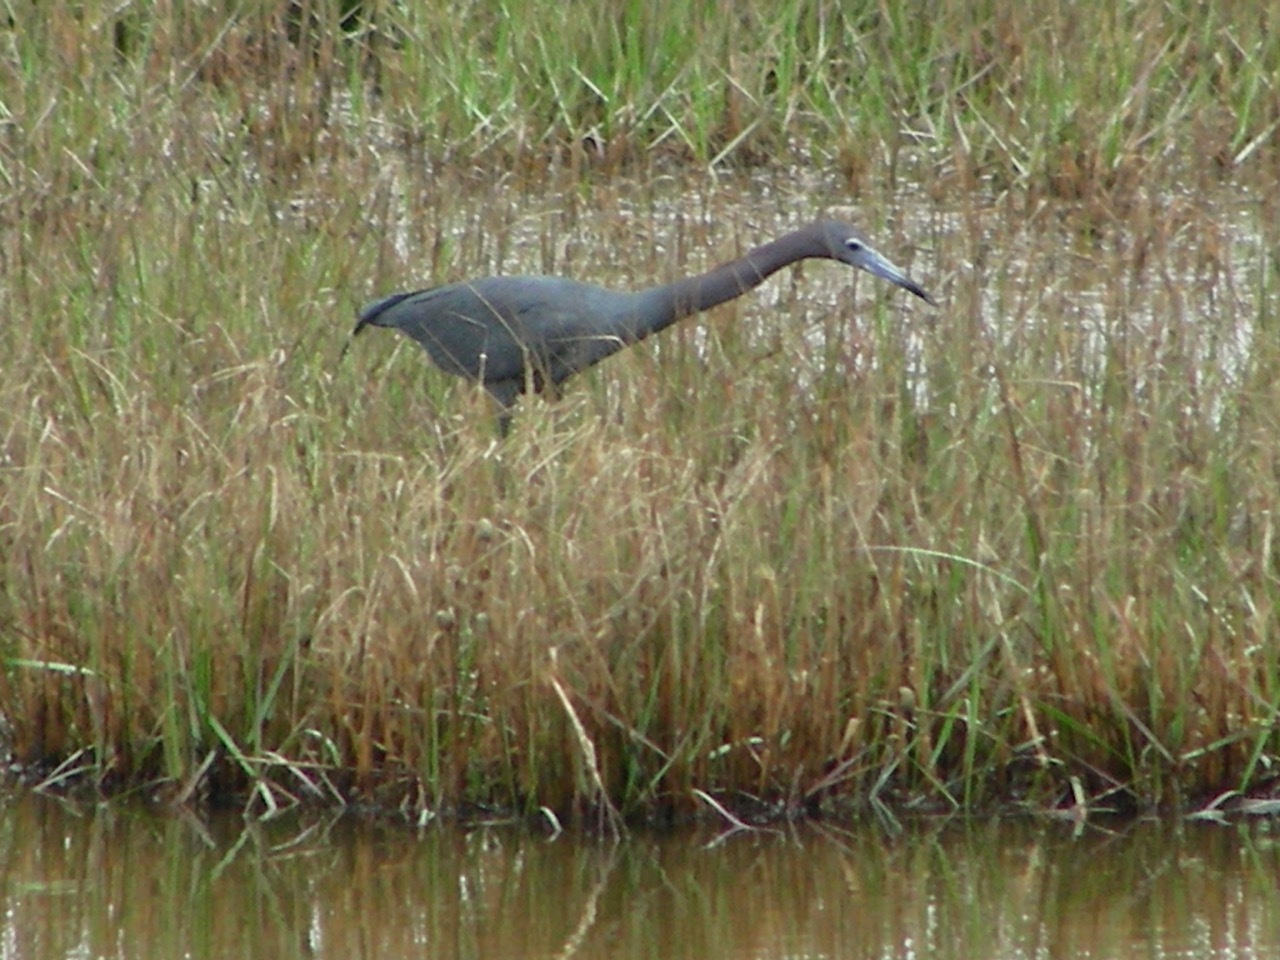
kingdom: Animalia
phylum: Chordata
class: Aves
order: Pelecaniformes
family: Ardeidae
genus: Egretta
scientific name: Egretta caerulea
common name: Little blue heron
